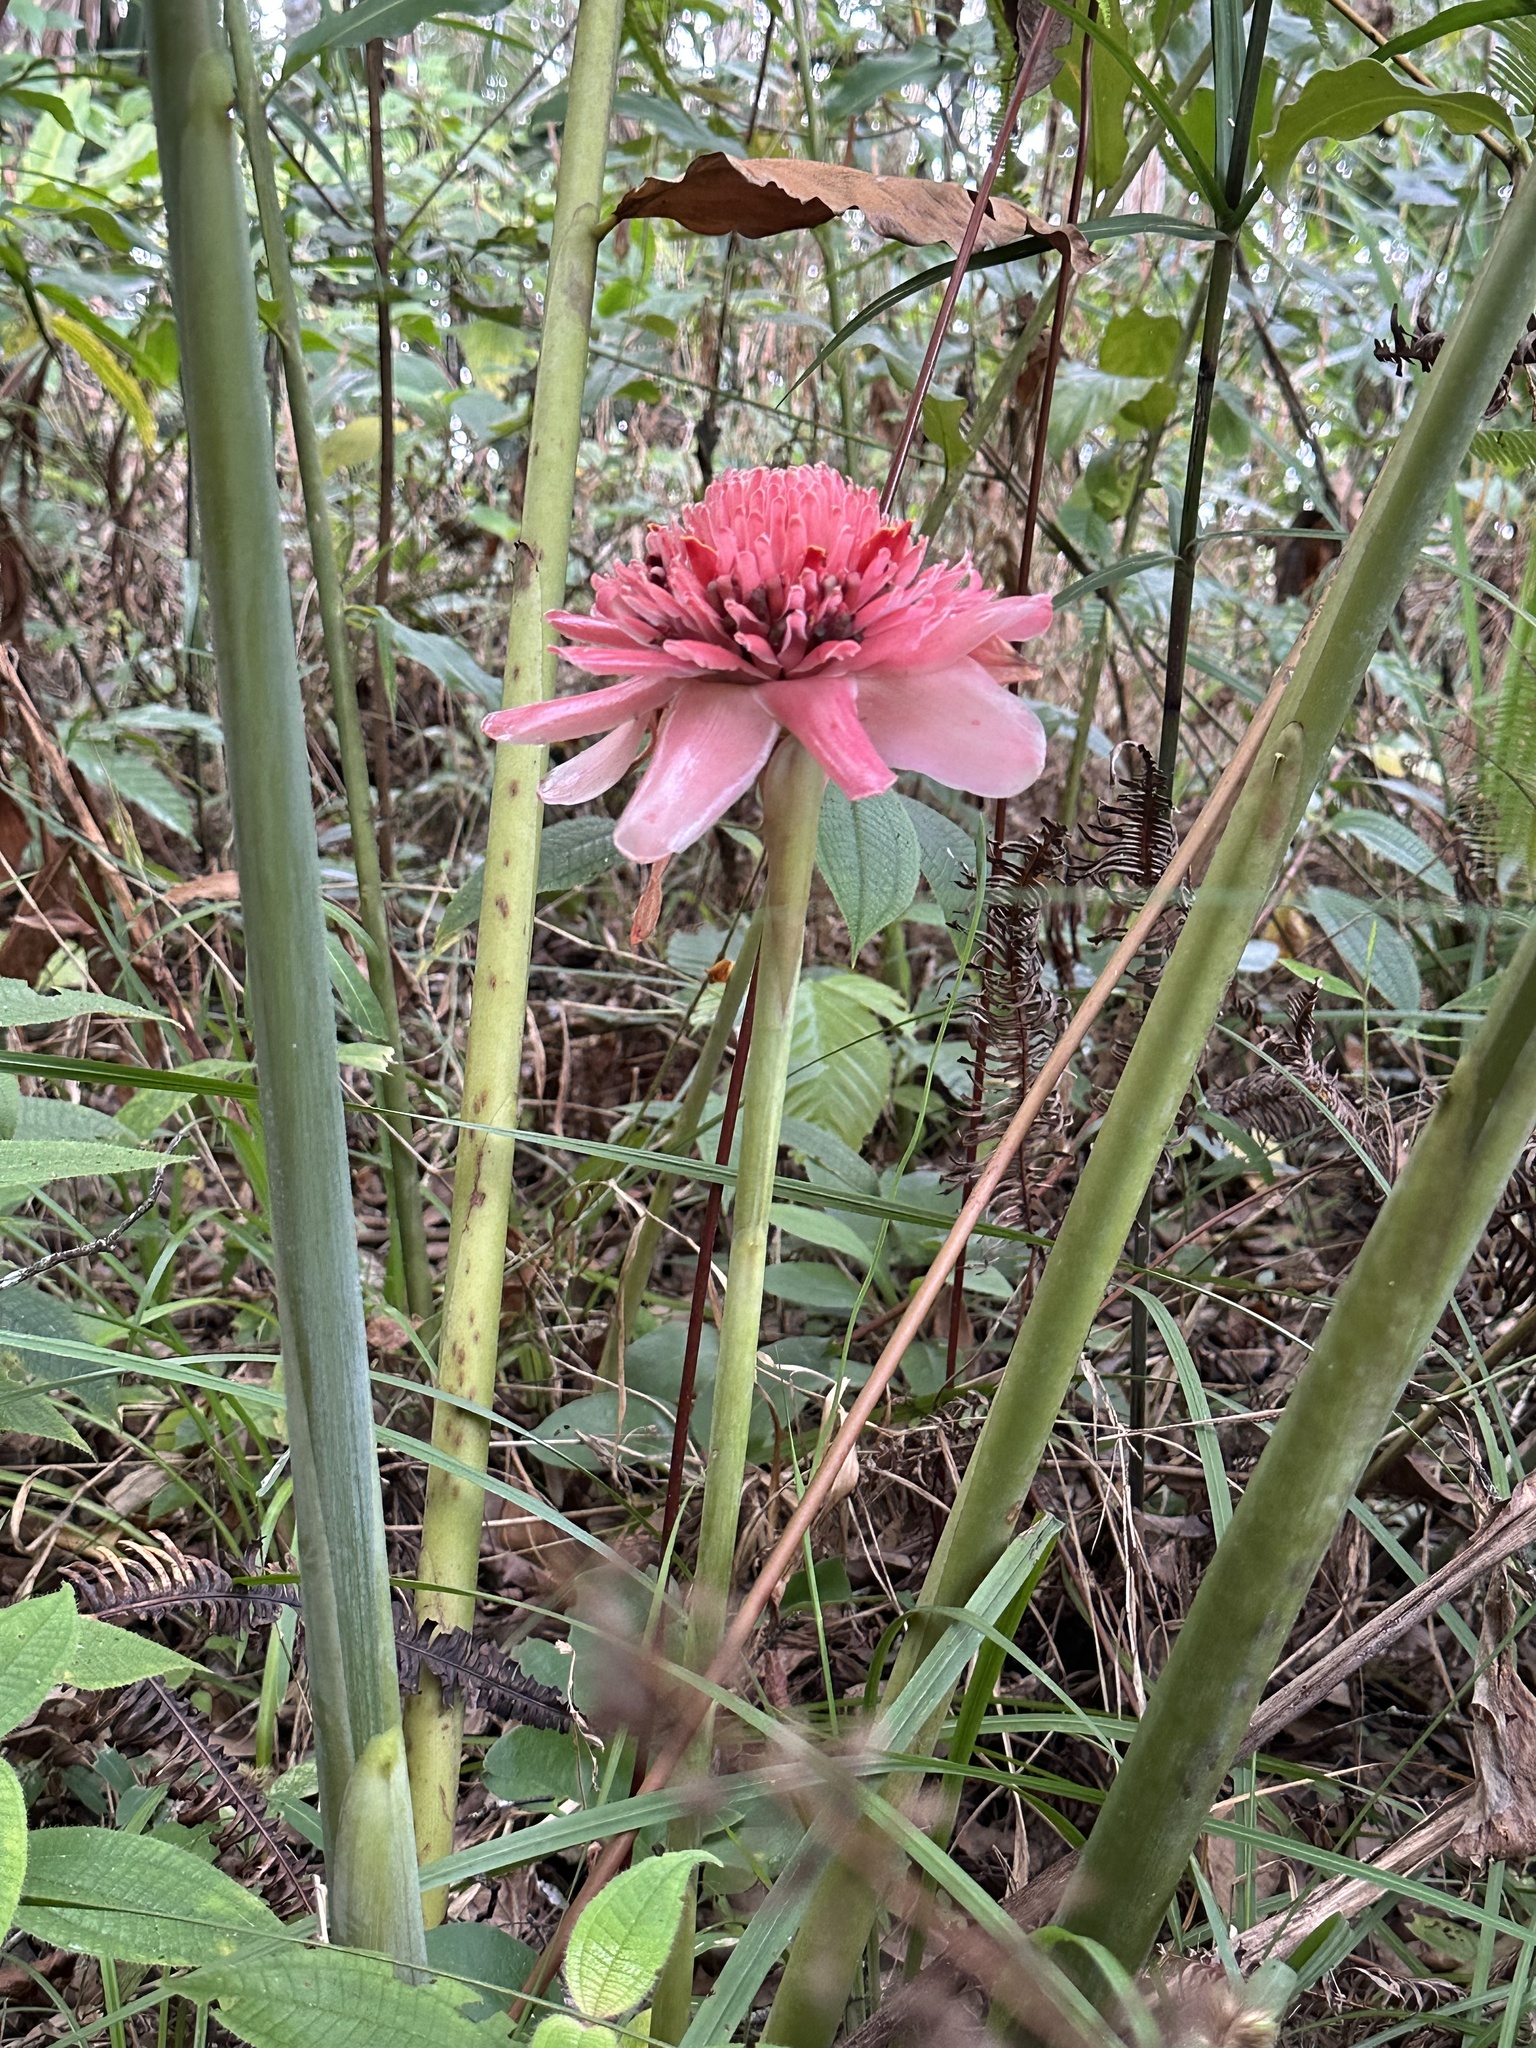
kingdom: Plantae
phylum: Tracheophyta
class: Liliopsida
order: Zingiberales
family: Zingiberaceae
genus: Etlingera
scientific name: Etlingera elatior
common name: Philippine waxflower
